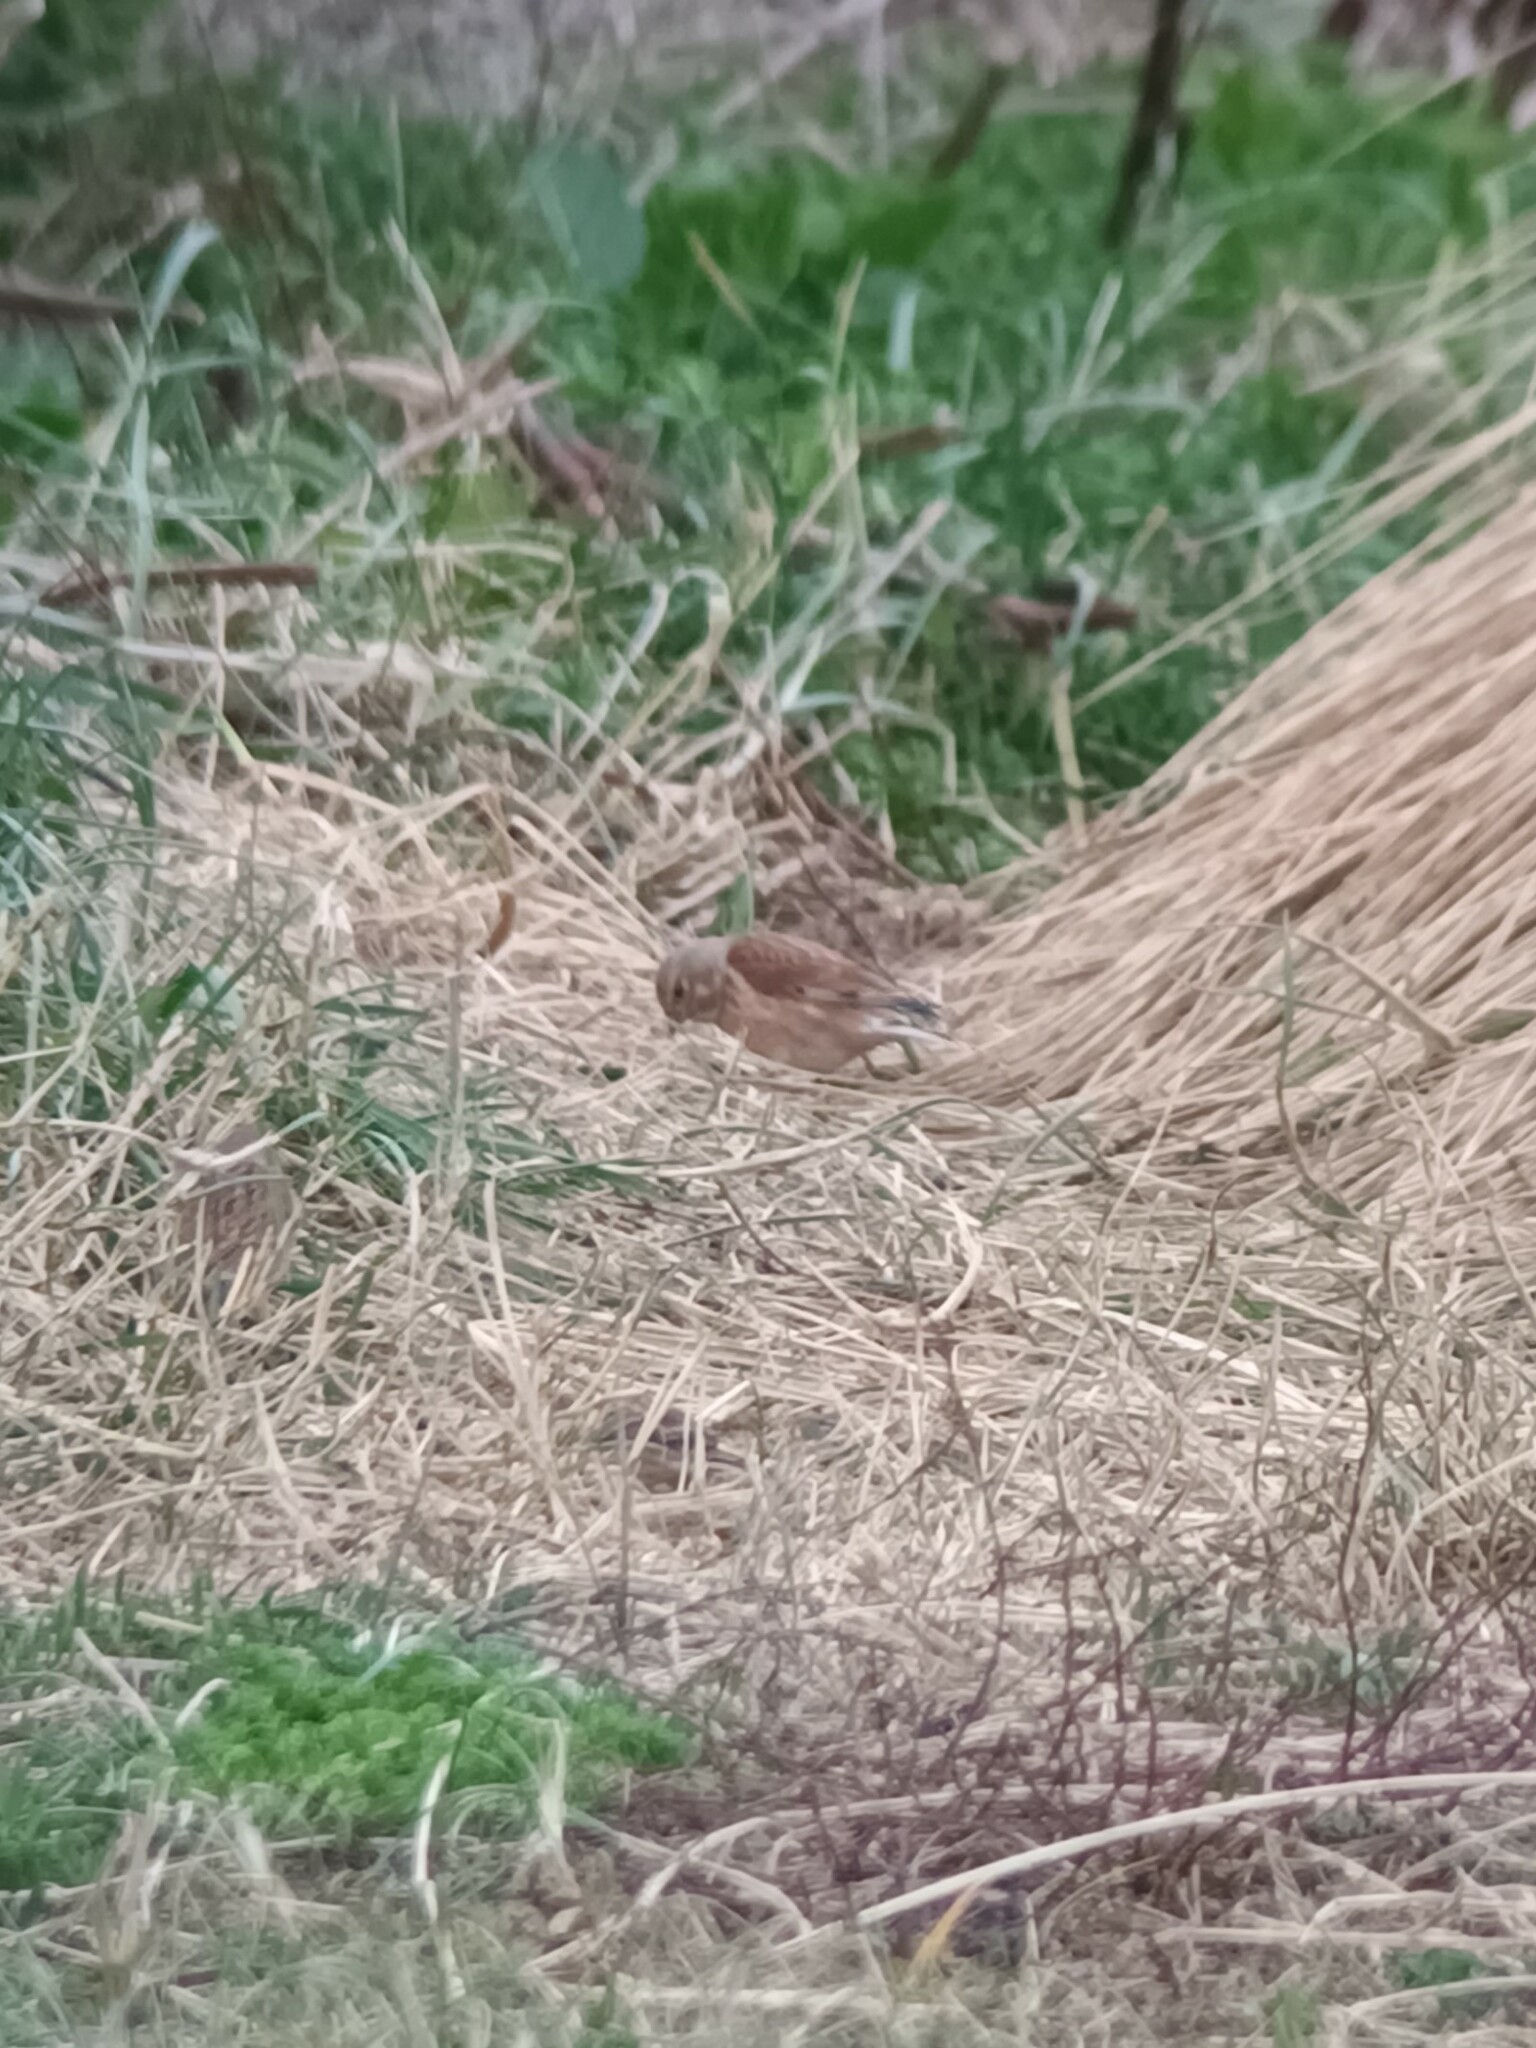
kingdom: Animalia
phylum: Chordata
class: Aves
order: Passeriformes
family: Fringillidae
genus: Linaria
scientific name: Linaria cannabina
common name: Common linnet
